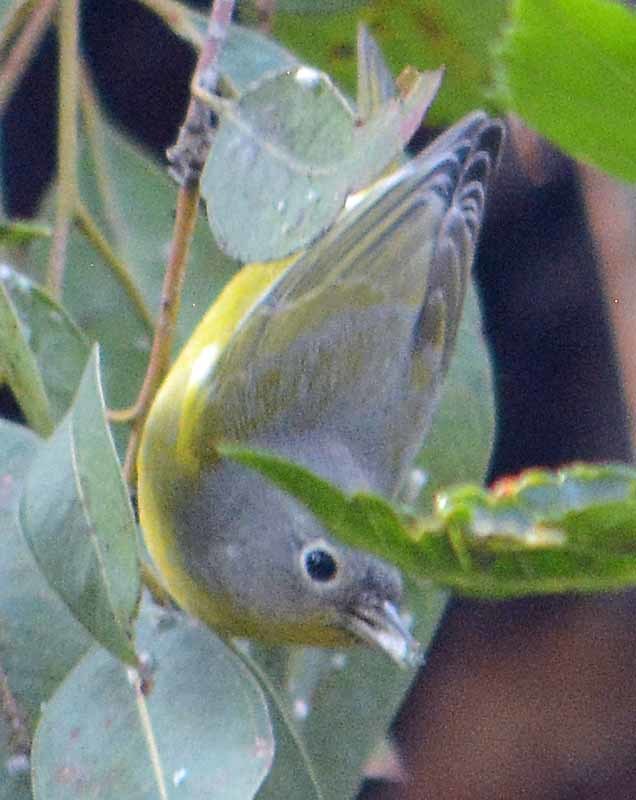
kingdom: Animalia
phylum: Chordata
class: Aves
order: Passeriformes
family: Parulidae
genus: Leiothlypis
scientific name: Leiothlypis ruficapilla
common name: Nashville warbler
